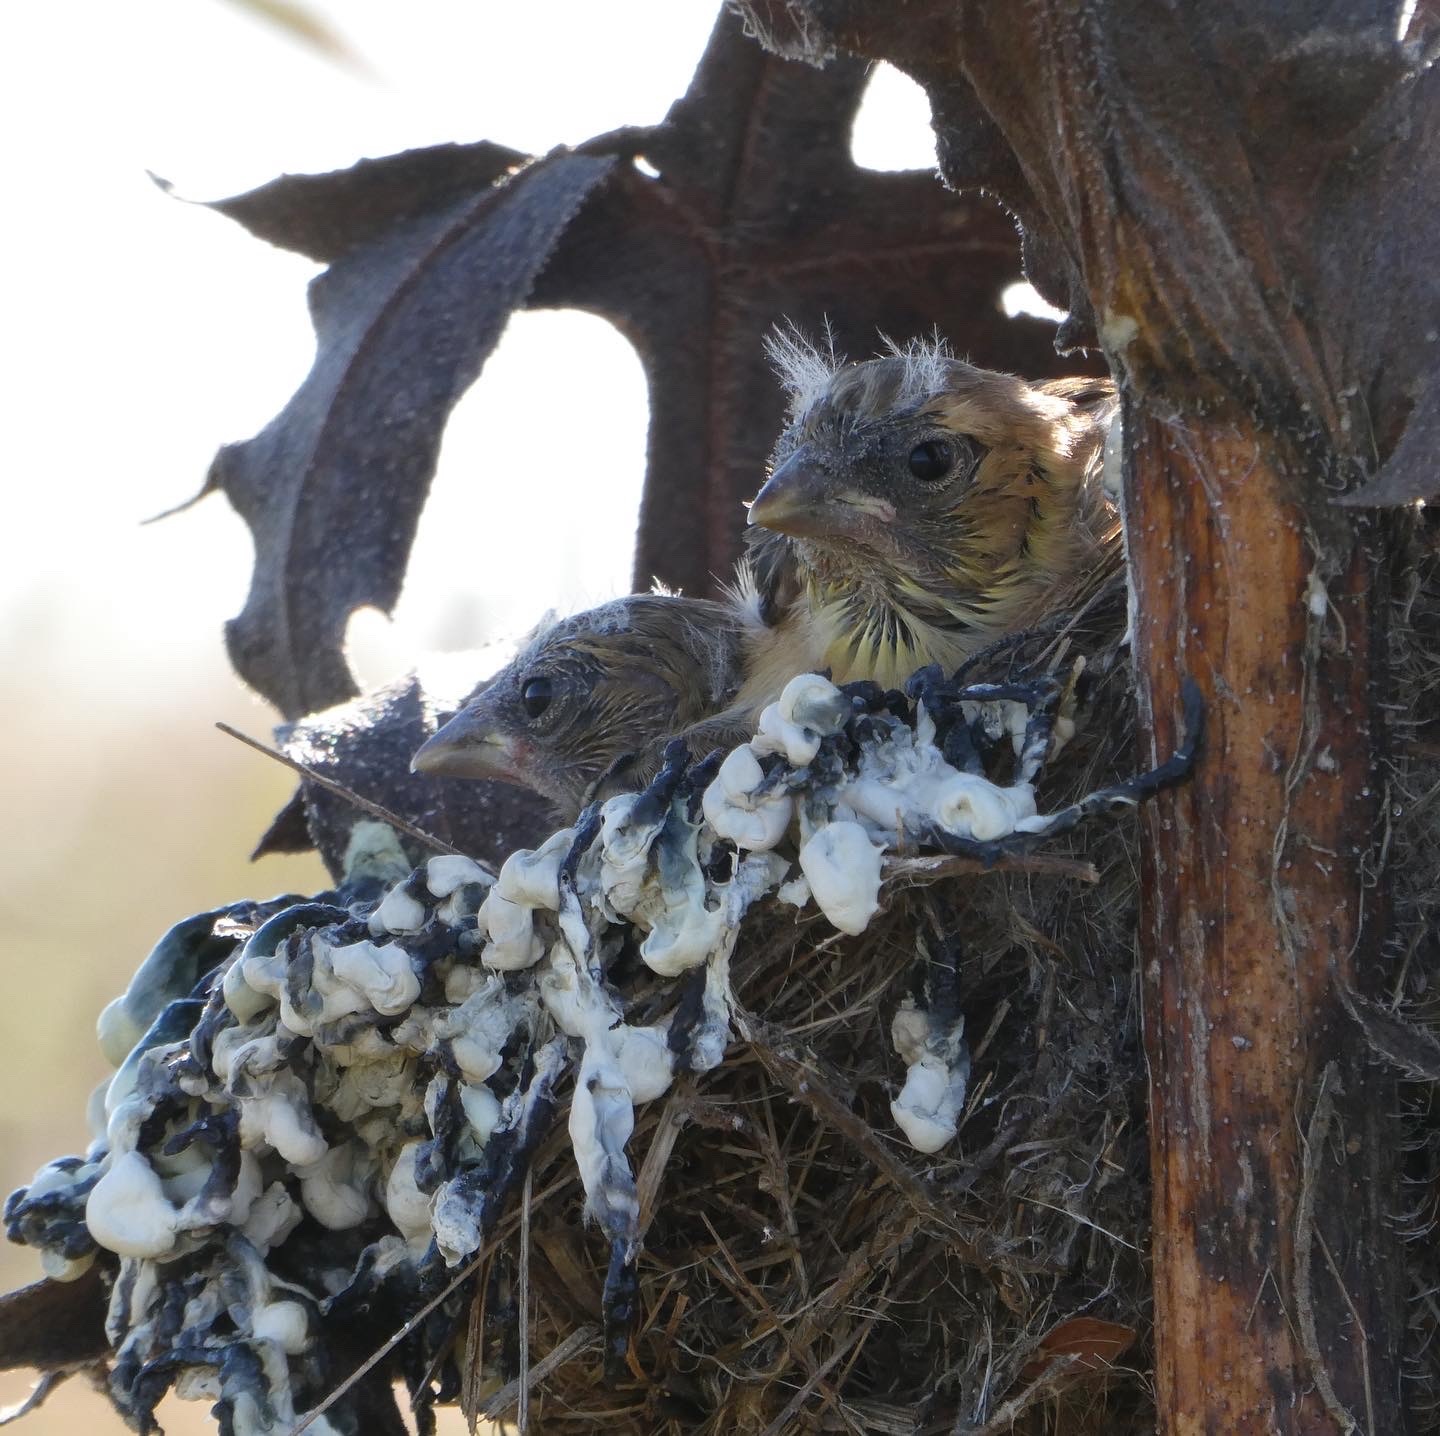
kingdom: Animalia
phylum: Chordata
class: Aves
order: Passeriformes
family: Fringillidae
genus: Spinus
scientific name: Spinus tristis
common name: American goldfinch
